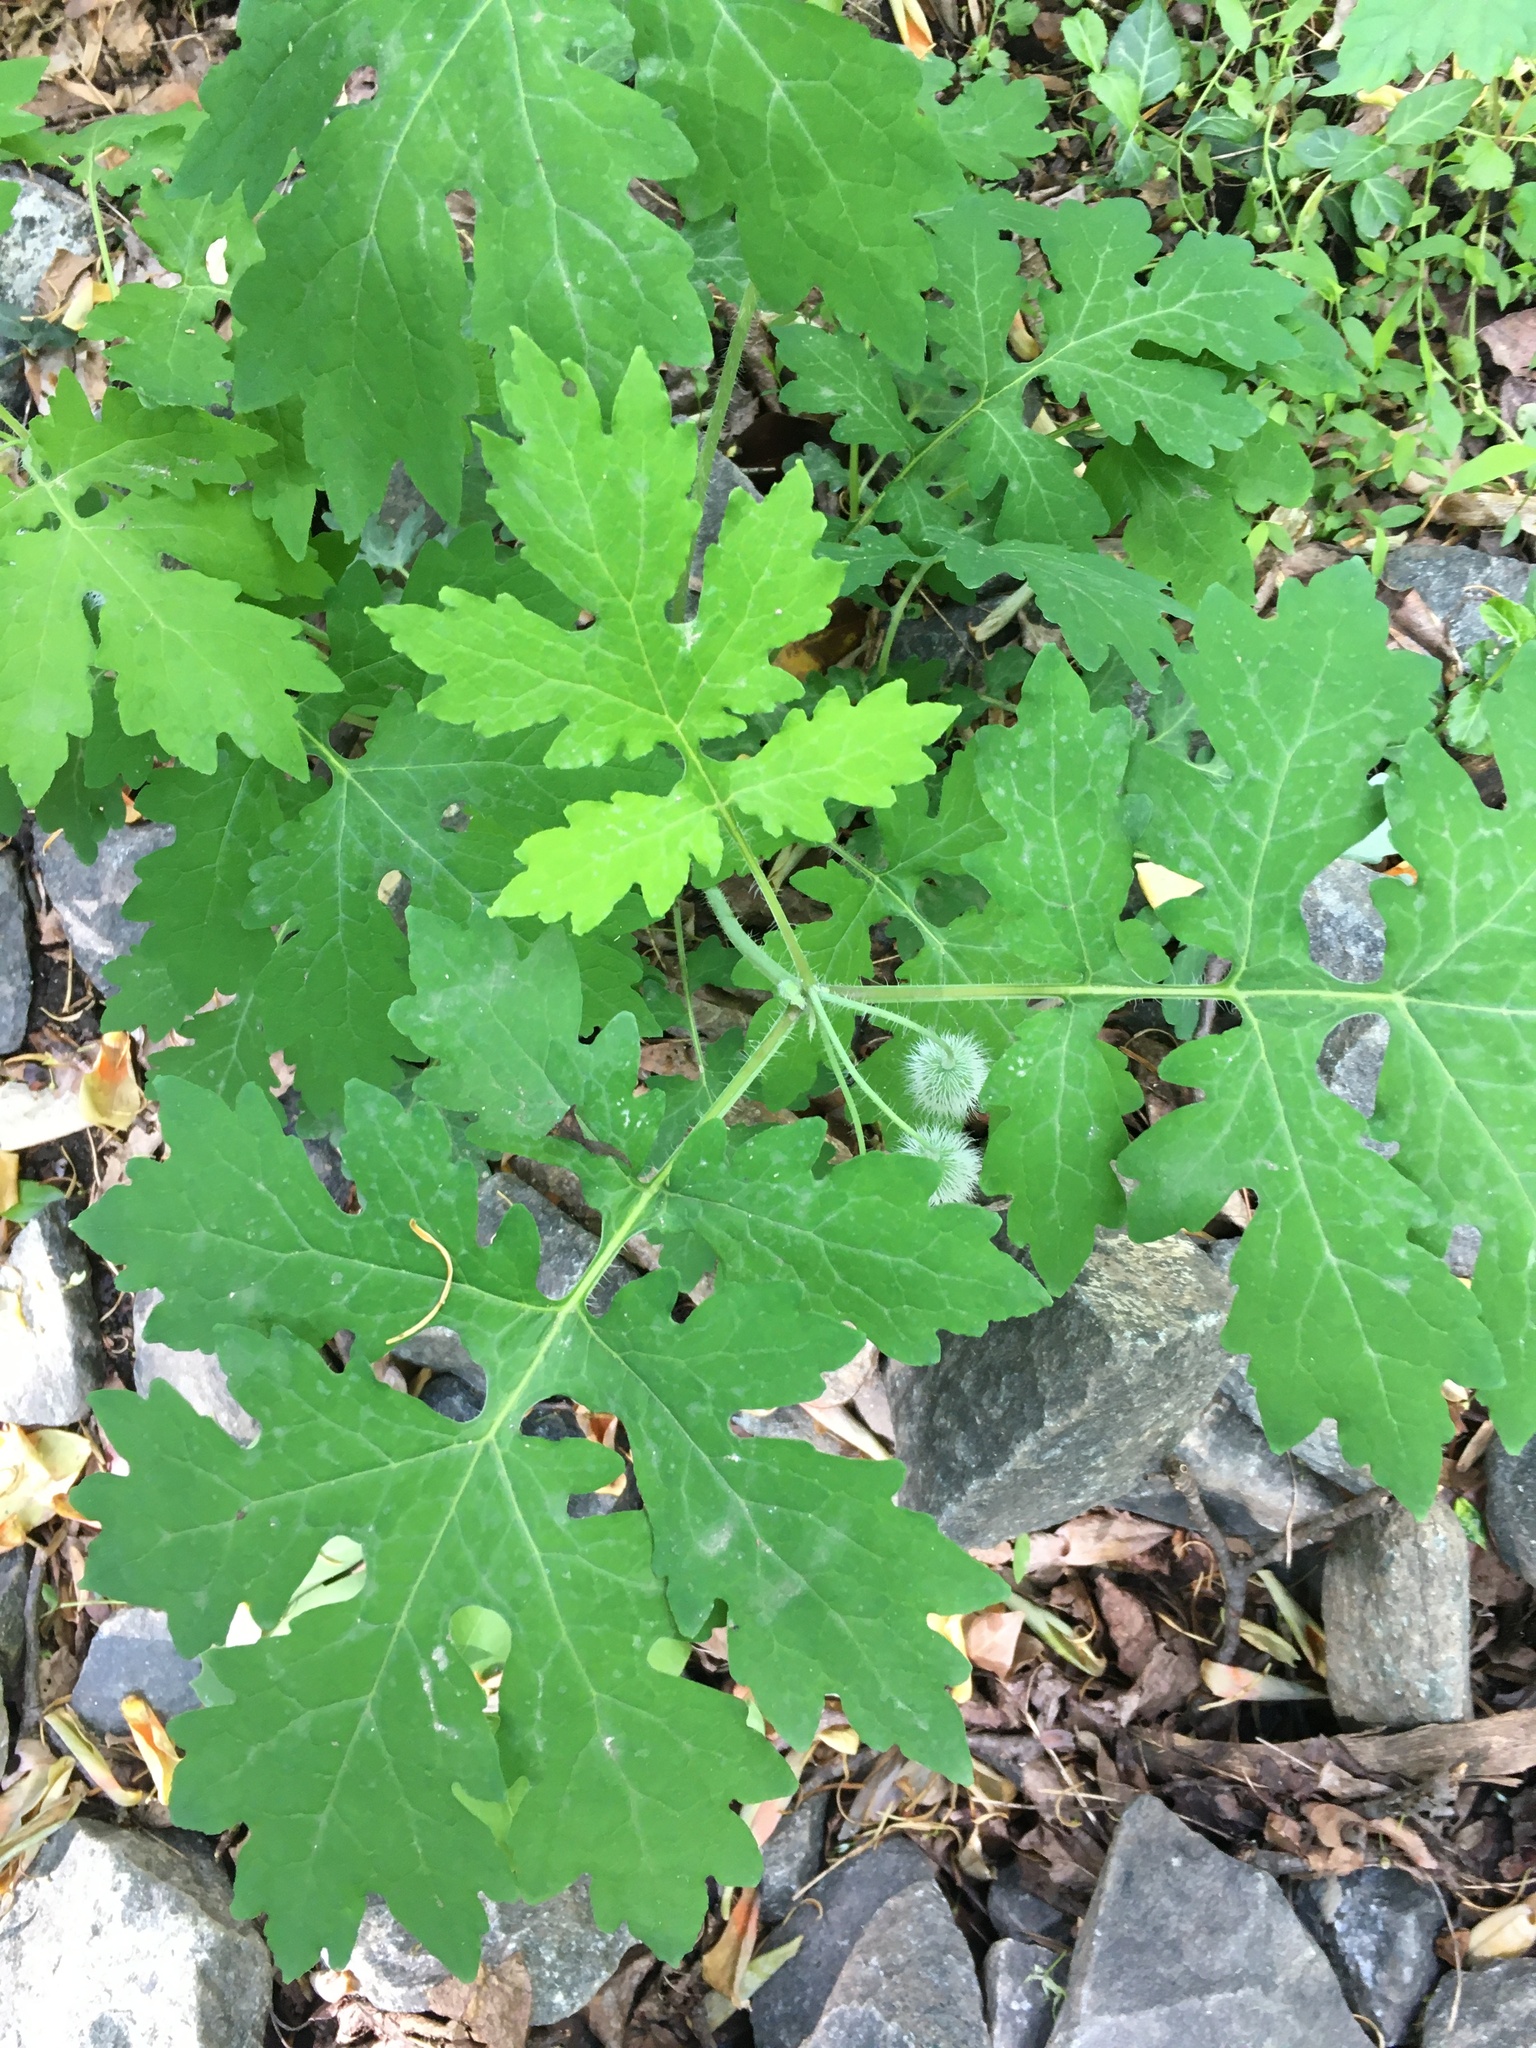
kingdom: Plantae
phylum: Tracheophyta
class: Magnoliopsida
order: Ranunculales
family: Papaveraceae
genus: Stylophorum
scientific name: Stylophorum diphyllum
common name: Celandine poppy
